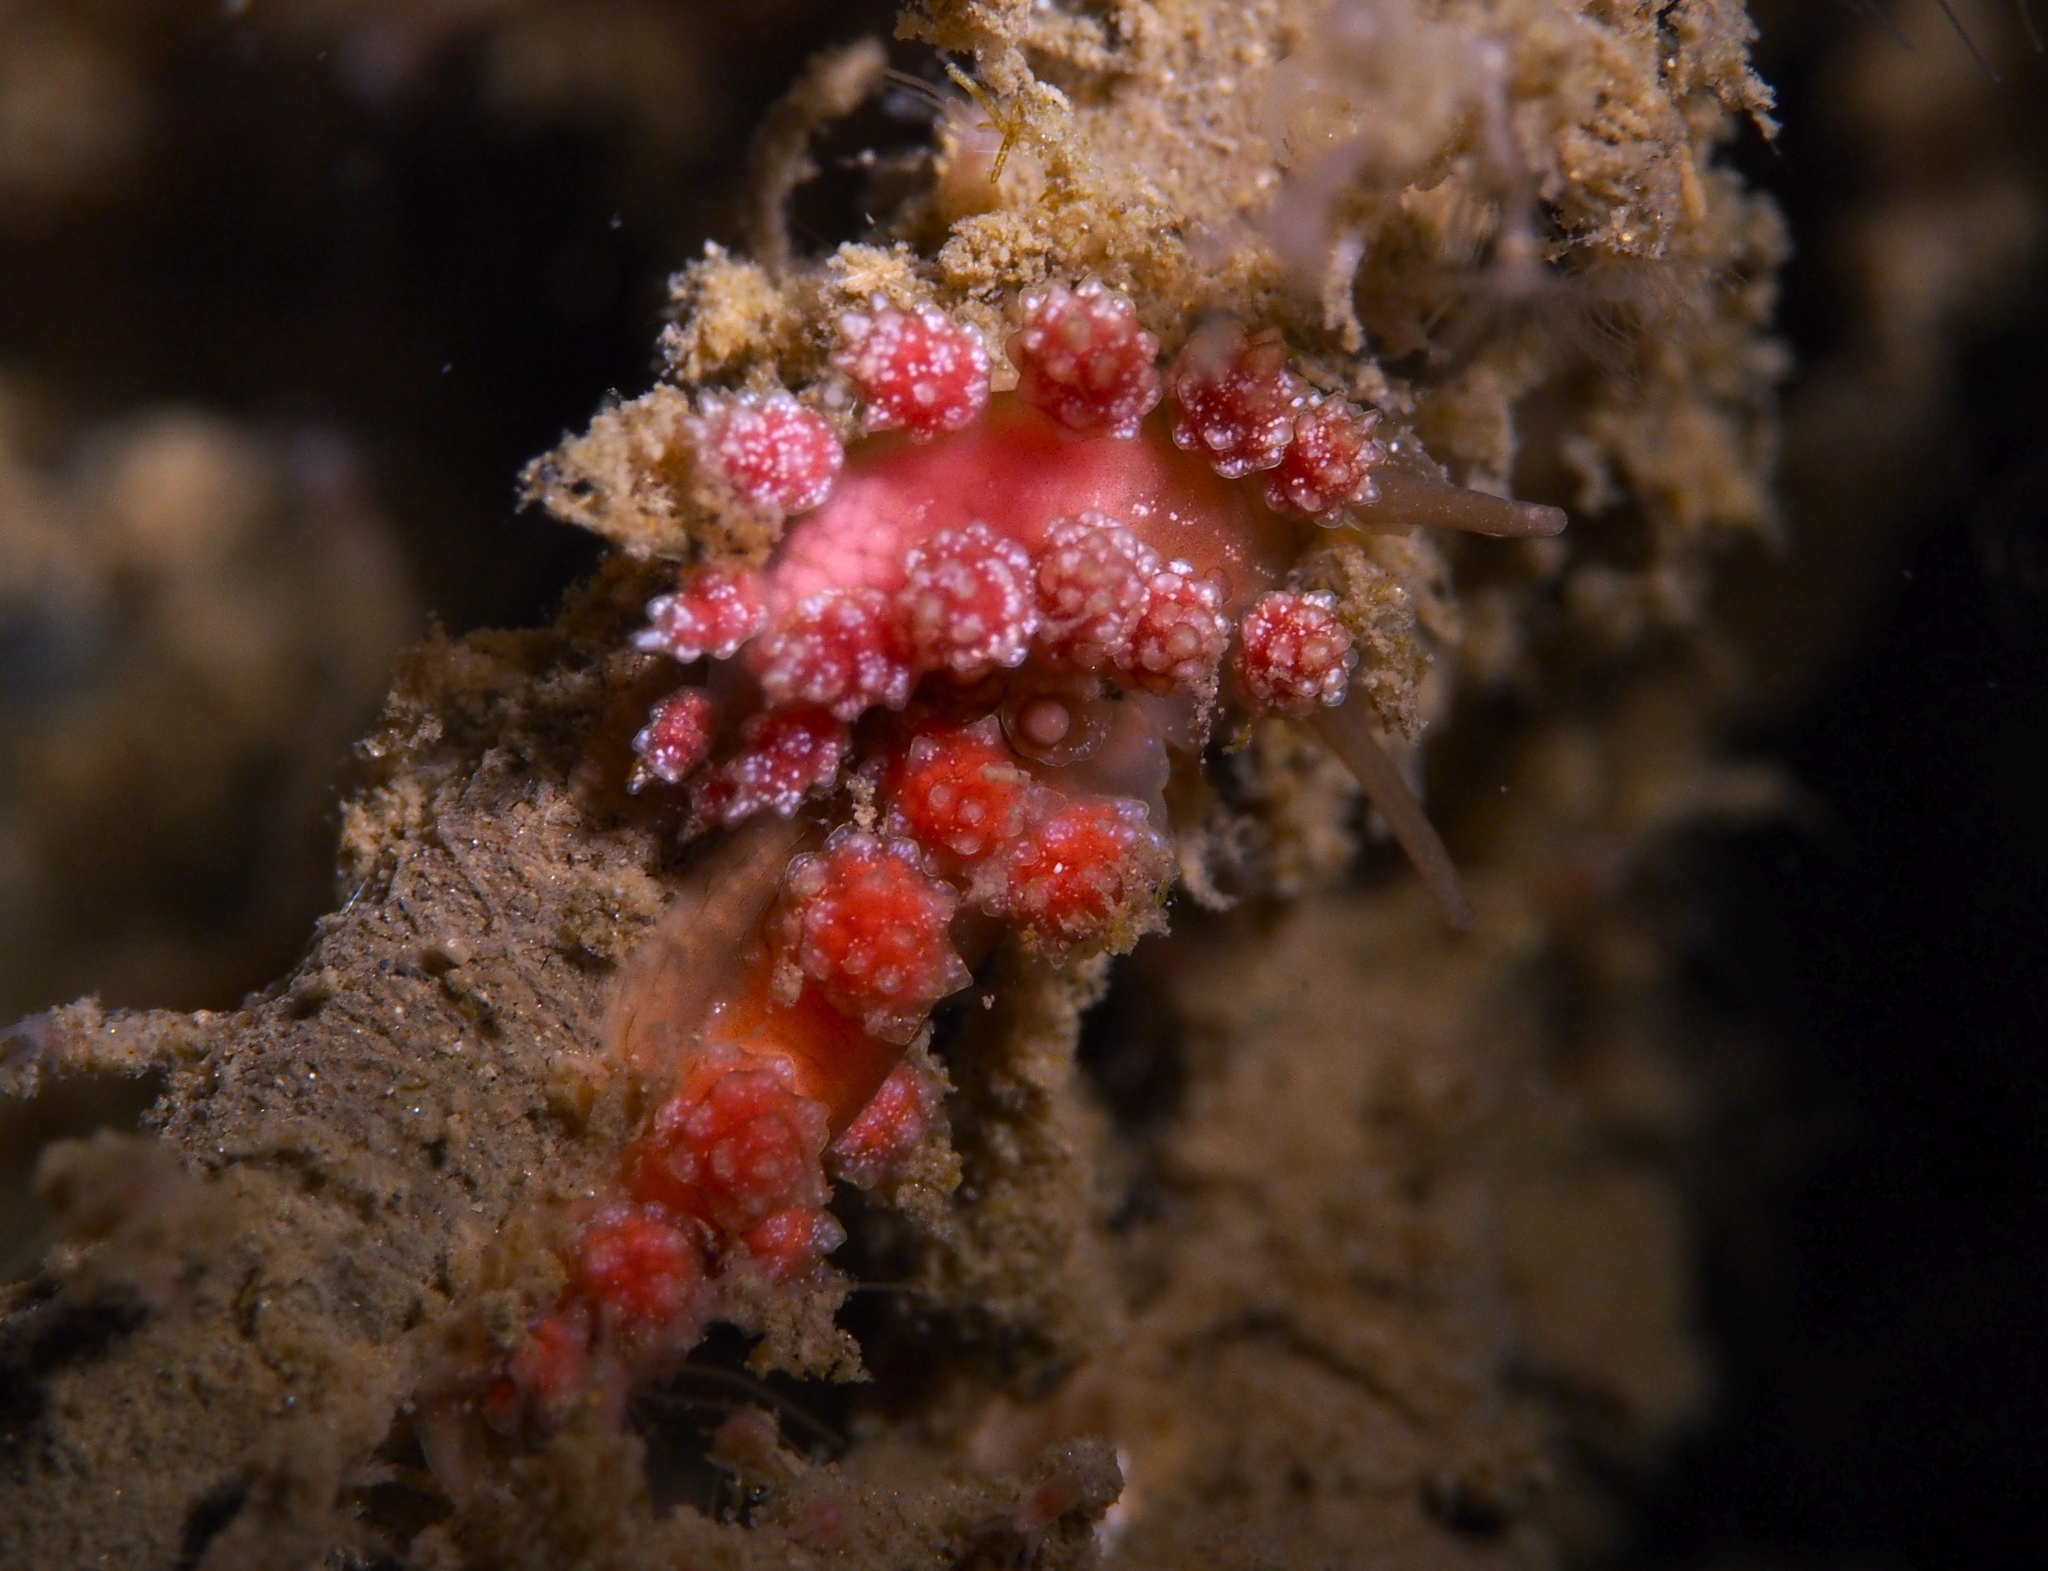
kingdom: Animalia
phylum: Mollusca
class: Gastropoda
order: Nudibranchia
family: Dotidae
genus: Doto
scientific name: Doto fragilis
